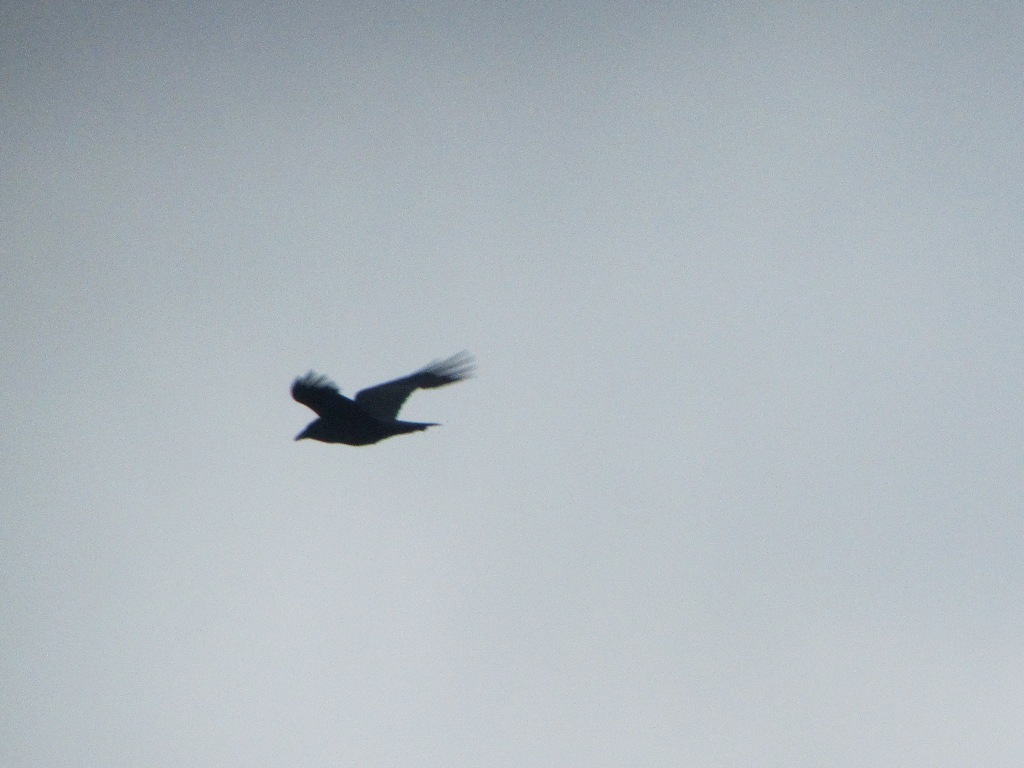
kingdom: Animalia
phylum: Chordata
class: Aves
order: Passeriformes
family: Corvidae
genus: Corvus
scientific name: Corvus corax
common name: Common raven
